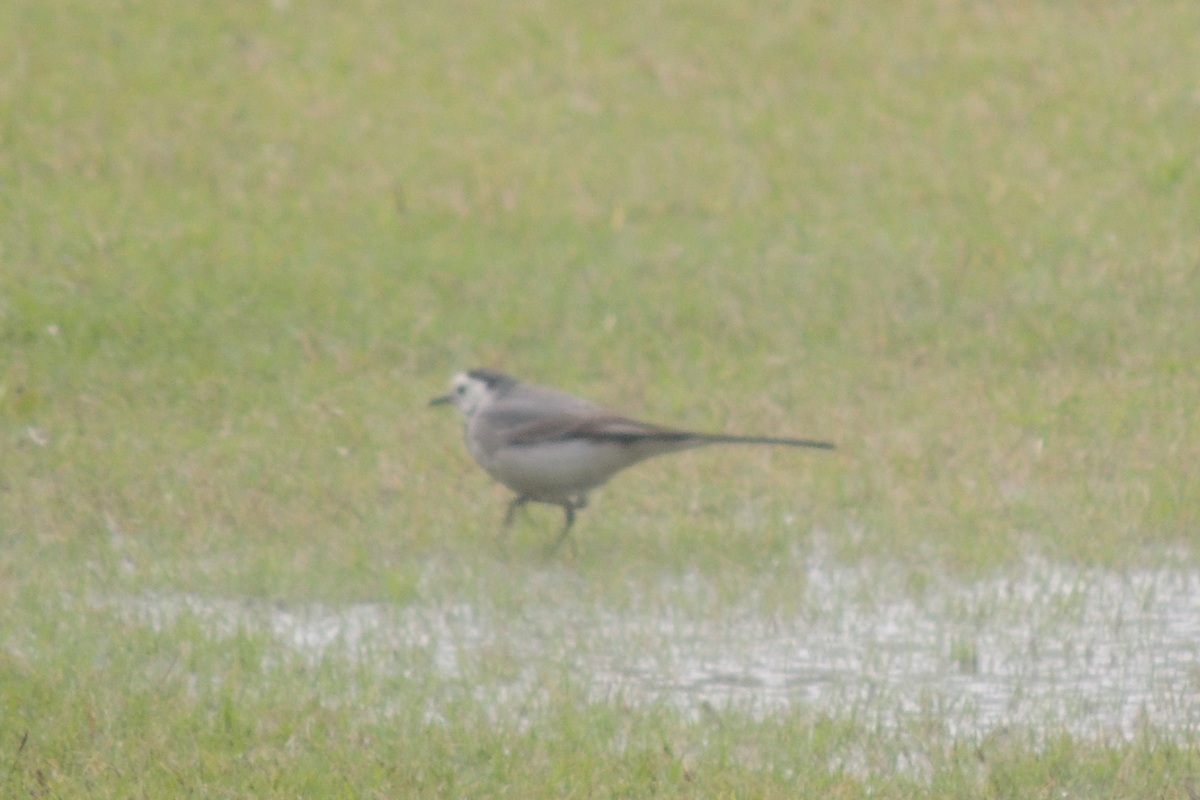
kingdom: Animalia
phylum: Chordata
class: Aves
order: Passeriformes
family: Motacillidae
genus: Motacilla
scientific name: Motacilla alba
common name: White wagtail
